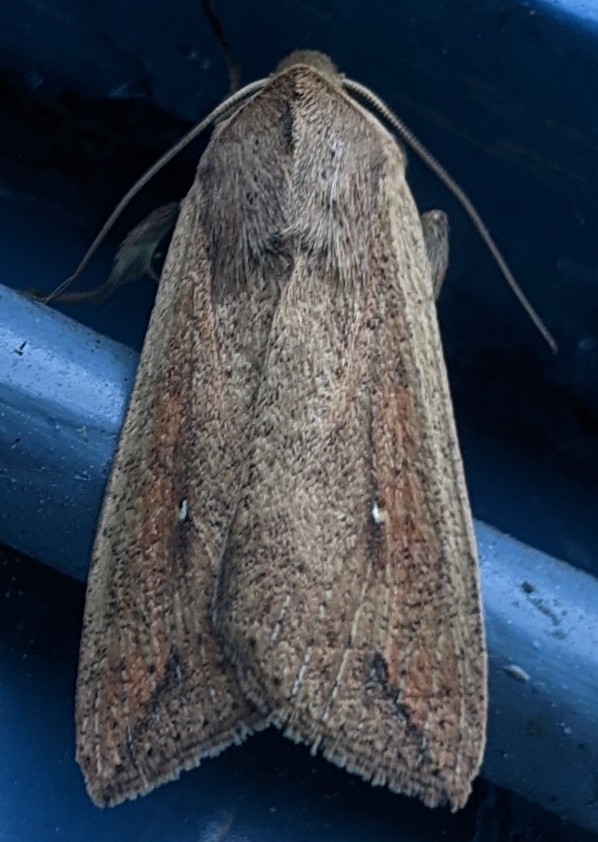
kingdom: Animalia
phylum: Arthropoda
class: Insecta
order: Lepidoptera
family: Noctuidae
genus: Mythimna
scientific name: Mythimna unipuncta
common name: White-speck
